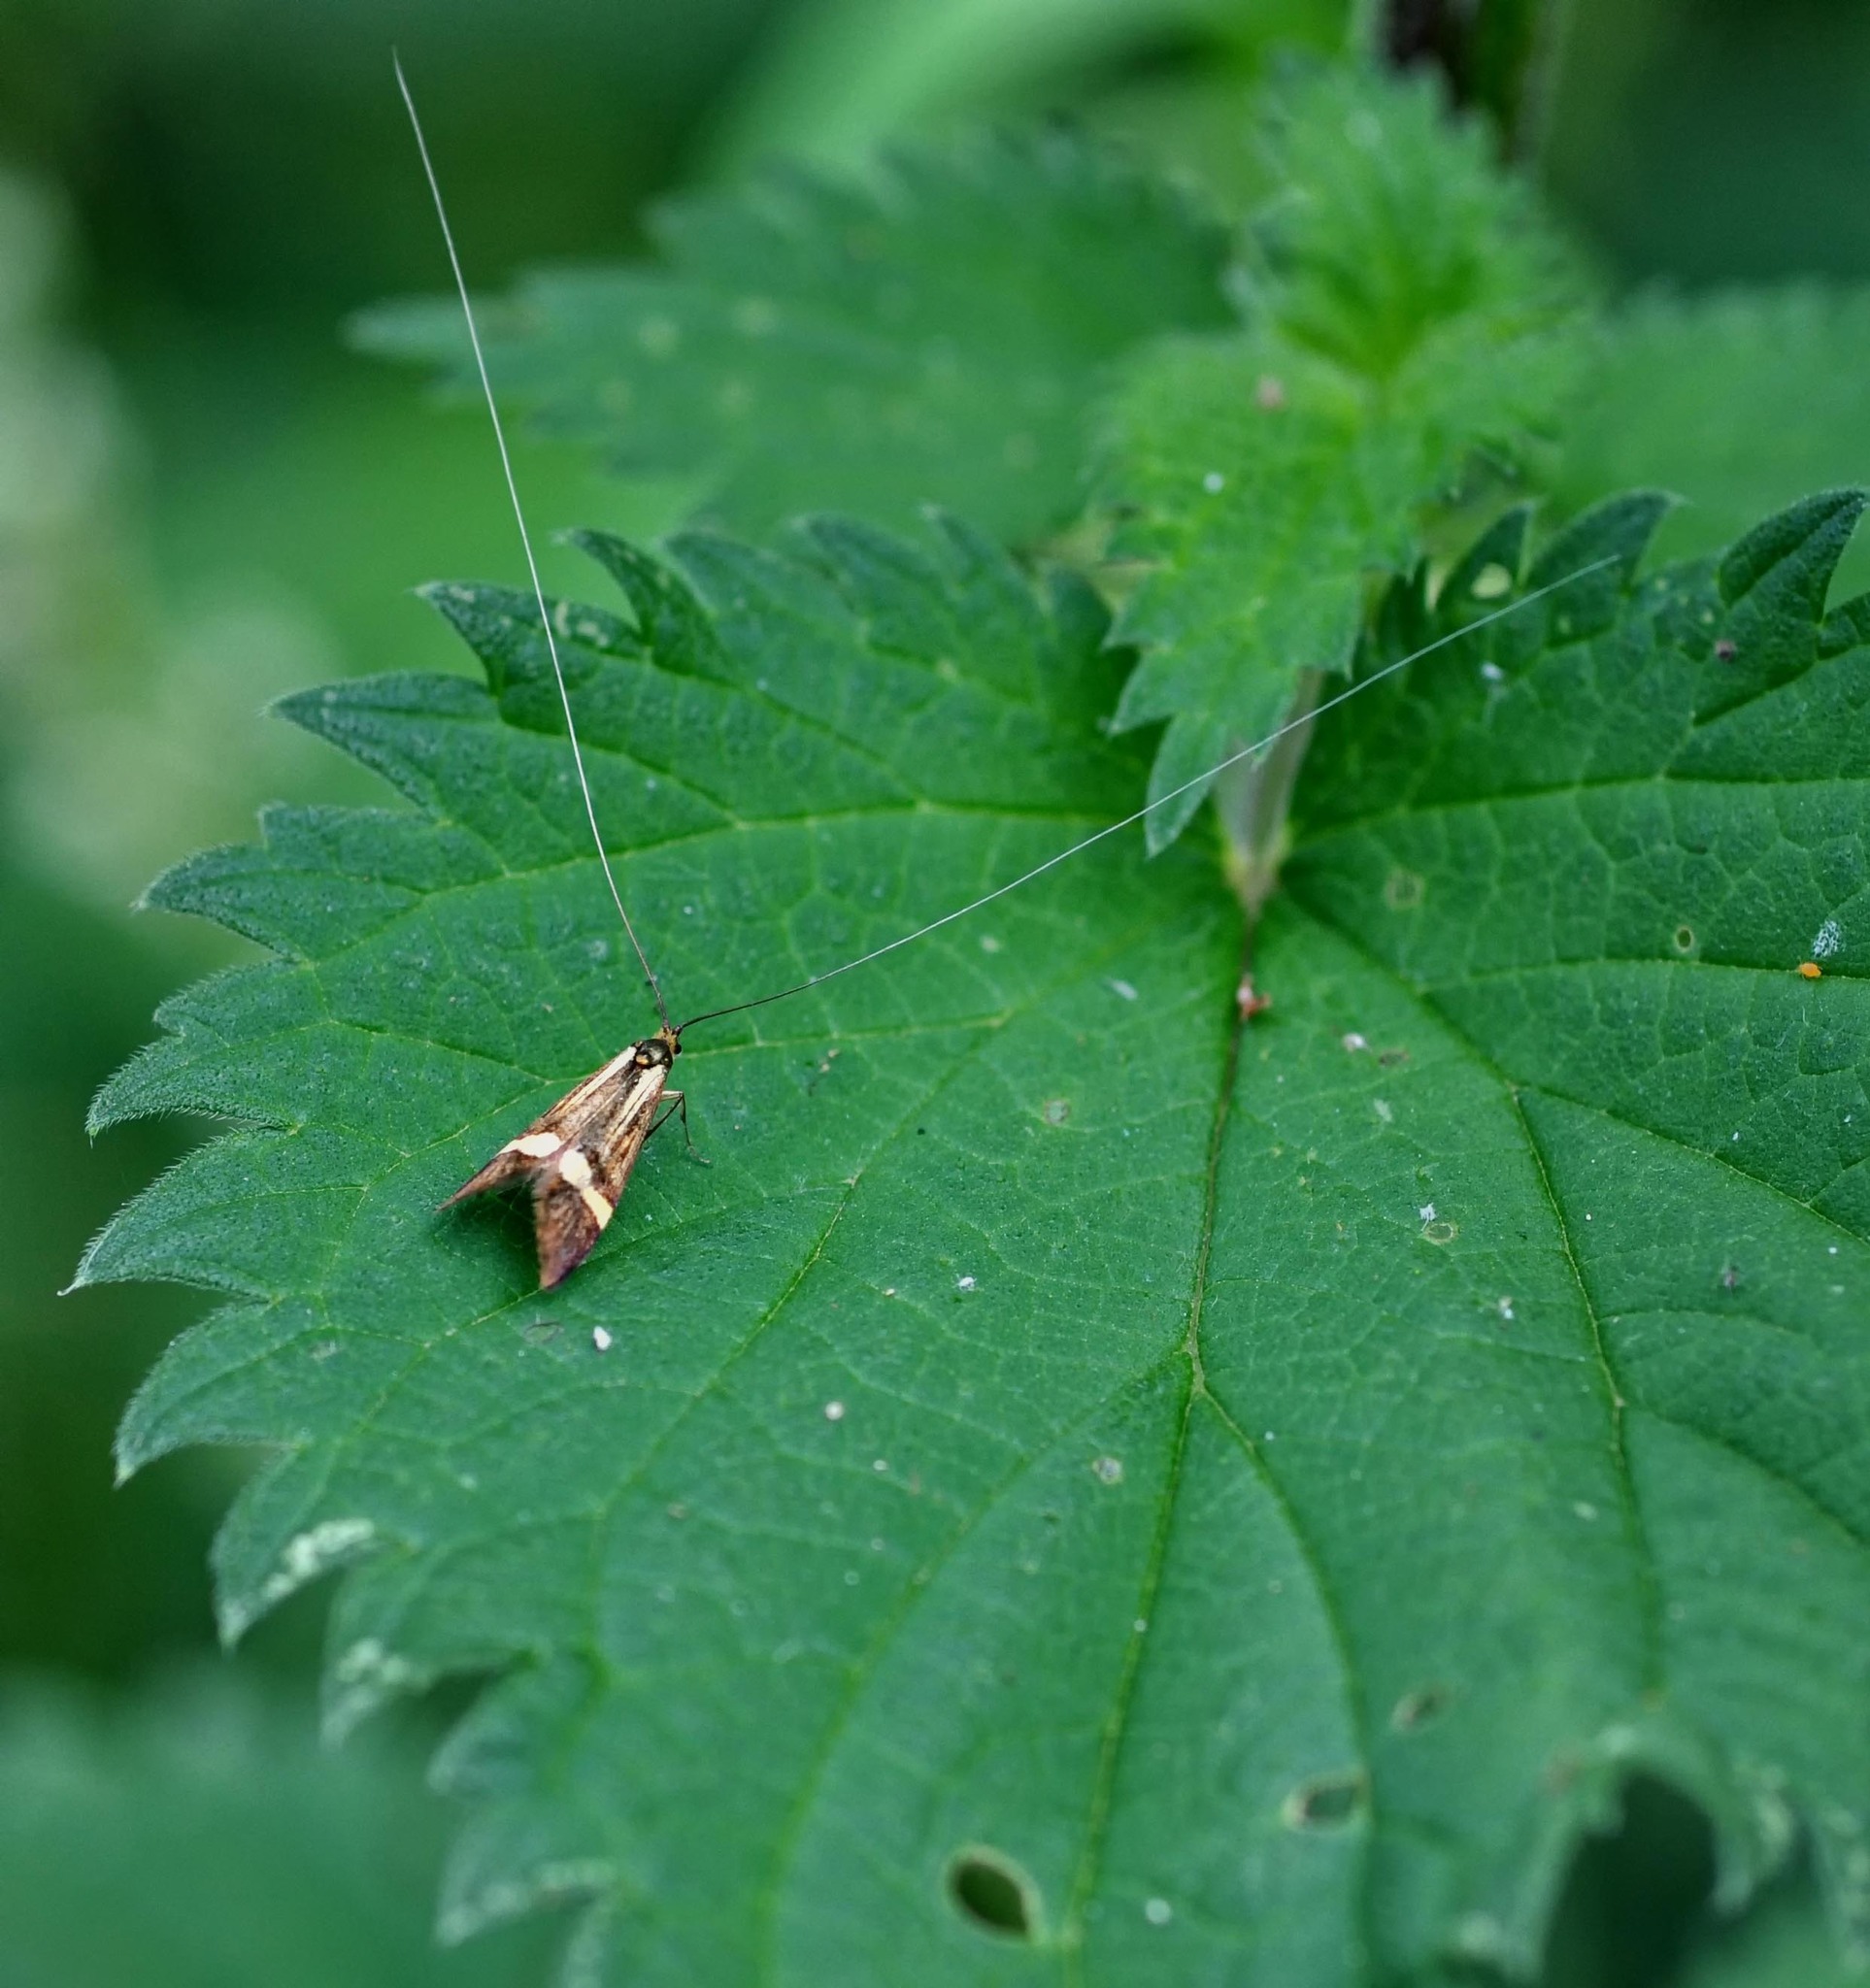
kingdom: Animalia
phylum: Arthropoda
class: Insecta
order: Lepidoptera
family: Adelidae
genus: Nemophora
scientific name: Nemophora degeerella
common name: Yellow-barred long-horn
